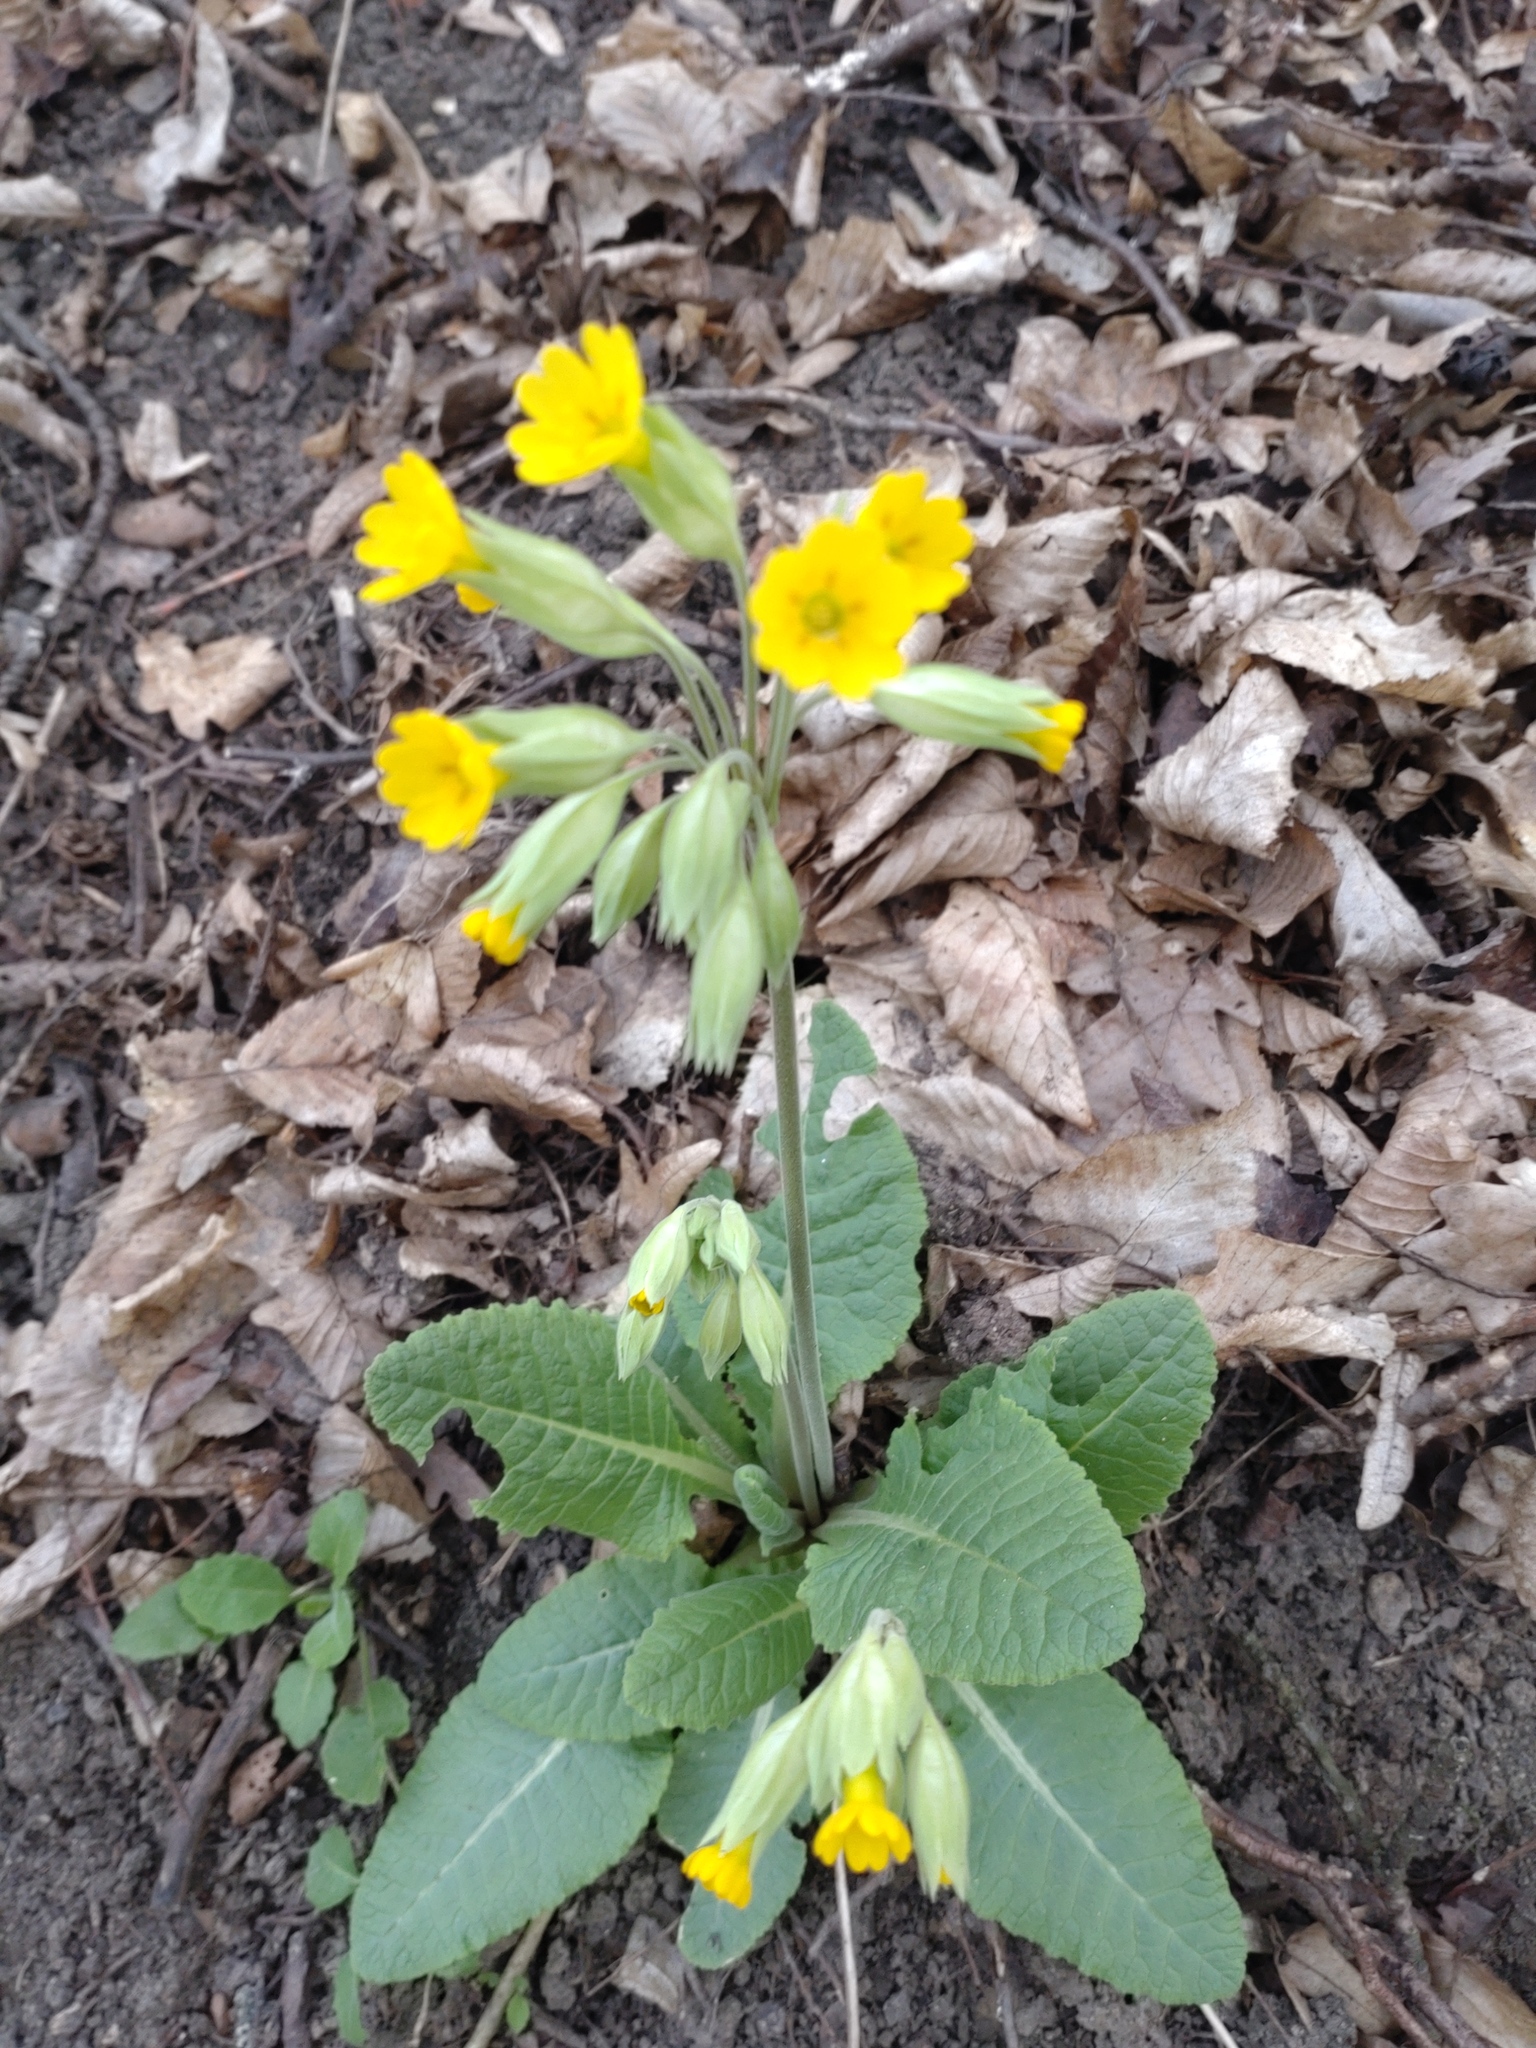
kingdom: Plantae
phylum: Tracheophyta
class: Magnoliopsida
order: Ericales
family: Primulaceae
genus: Primula
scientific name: Primula veris
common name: Cowslip
